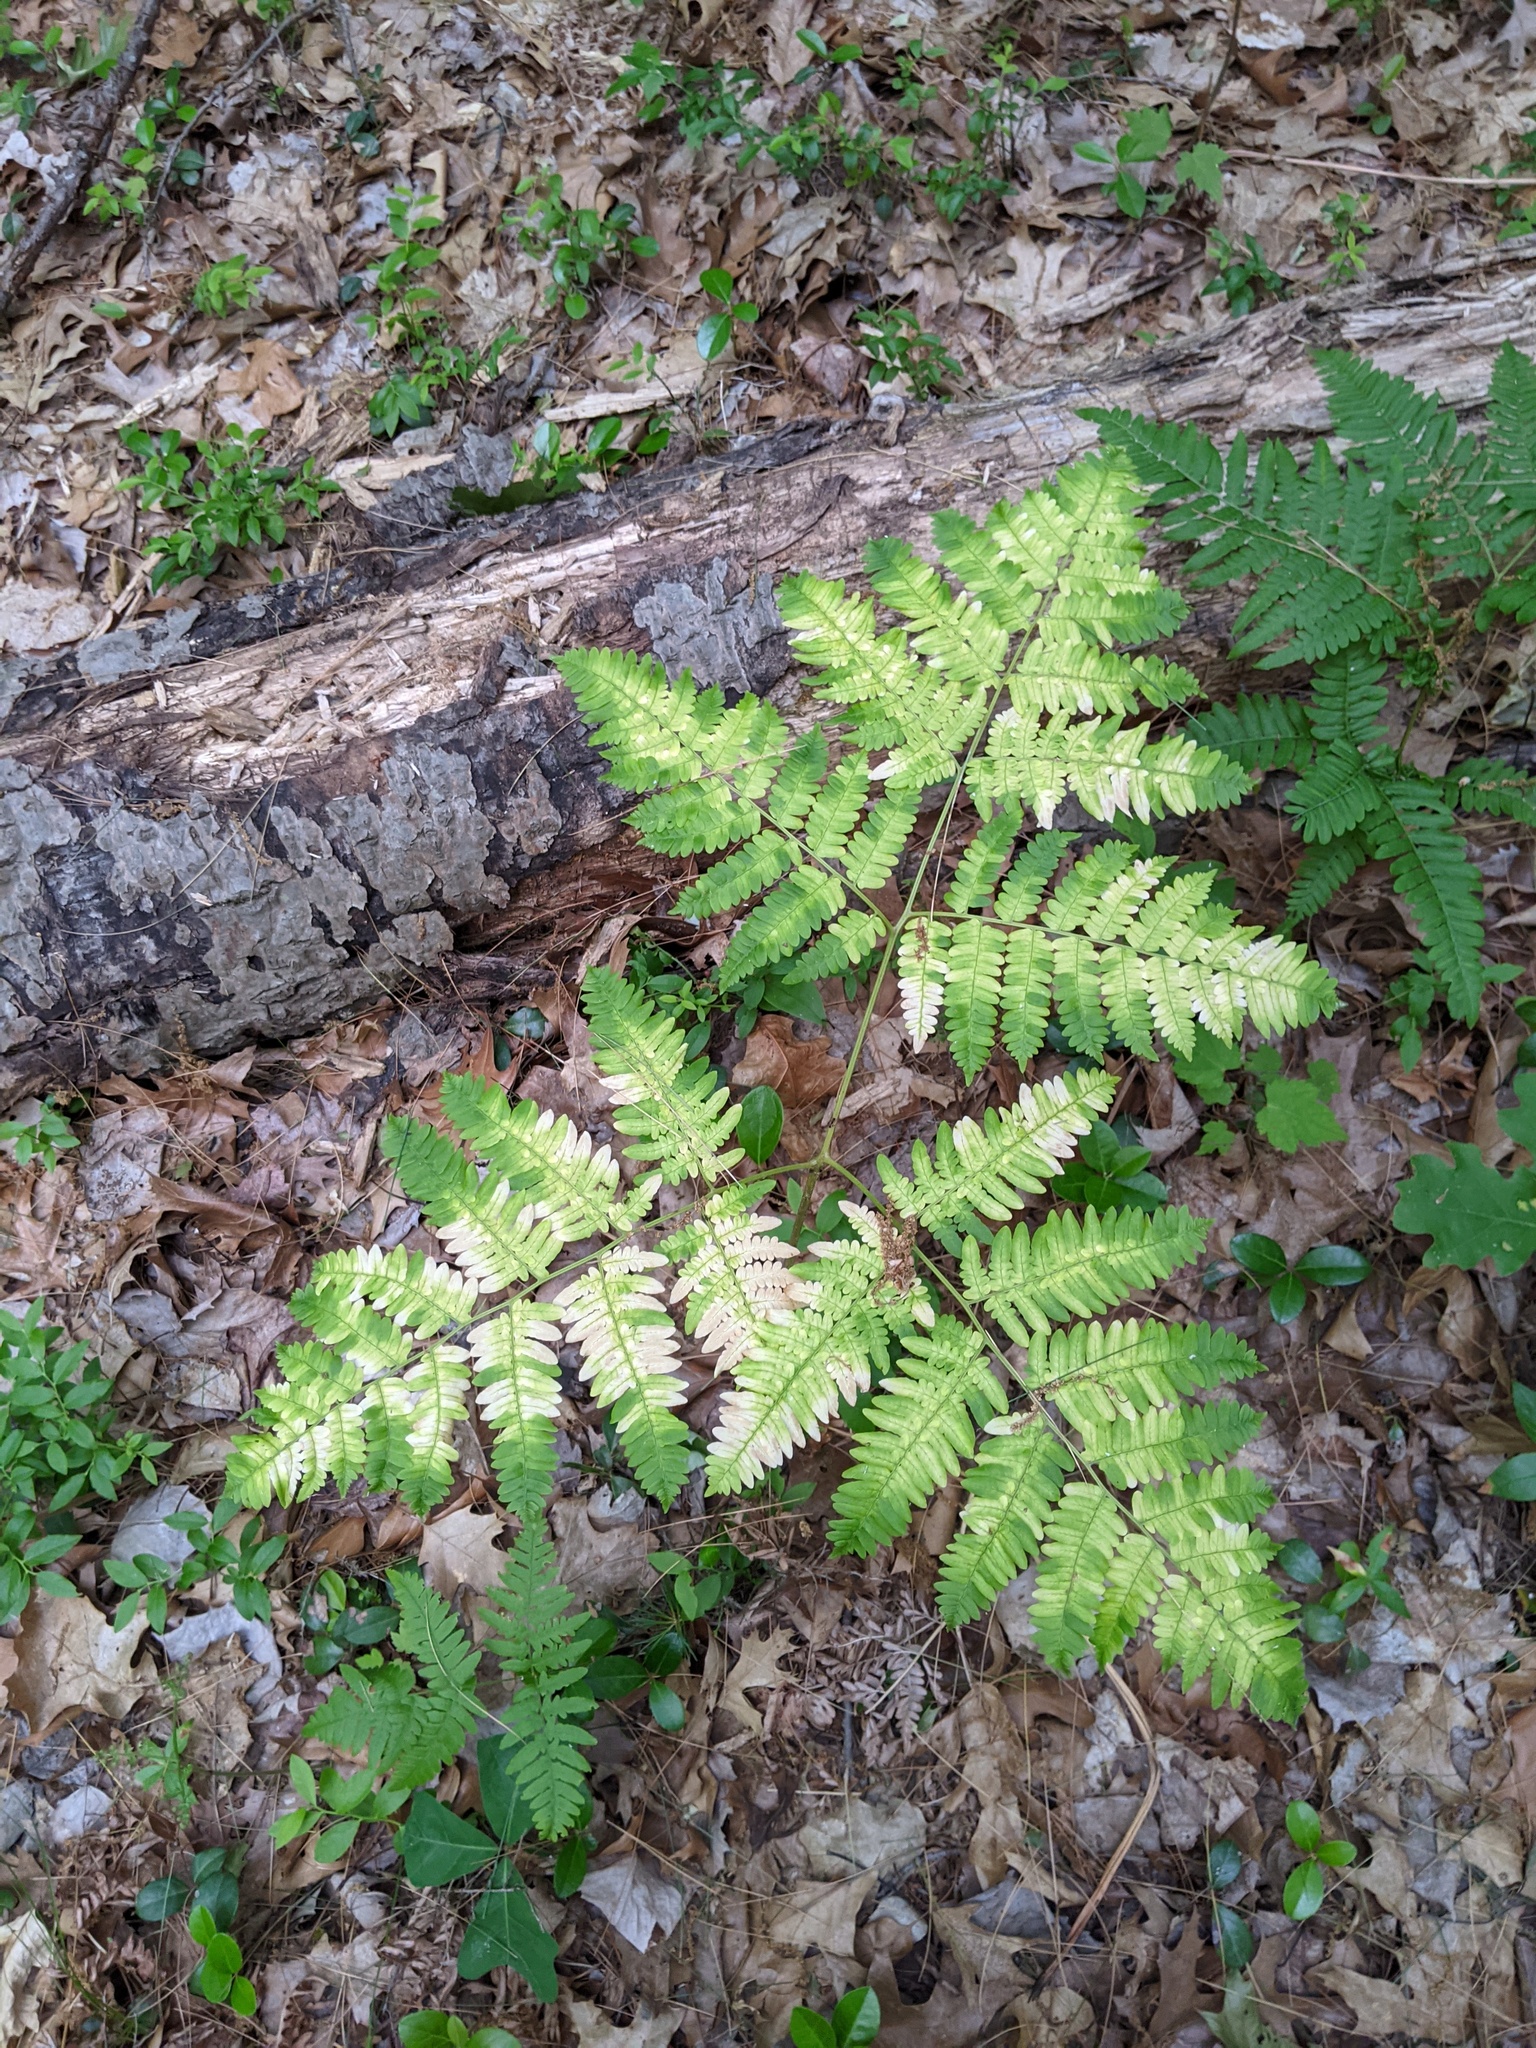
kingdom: Plantae
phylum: Tracheophyta
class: Polypodiopsida
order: Polypodiales
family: Dennstaedtiaceae
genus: Pteridium
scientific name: Pteridium aquilinum
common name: Bracken
